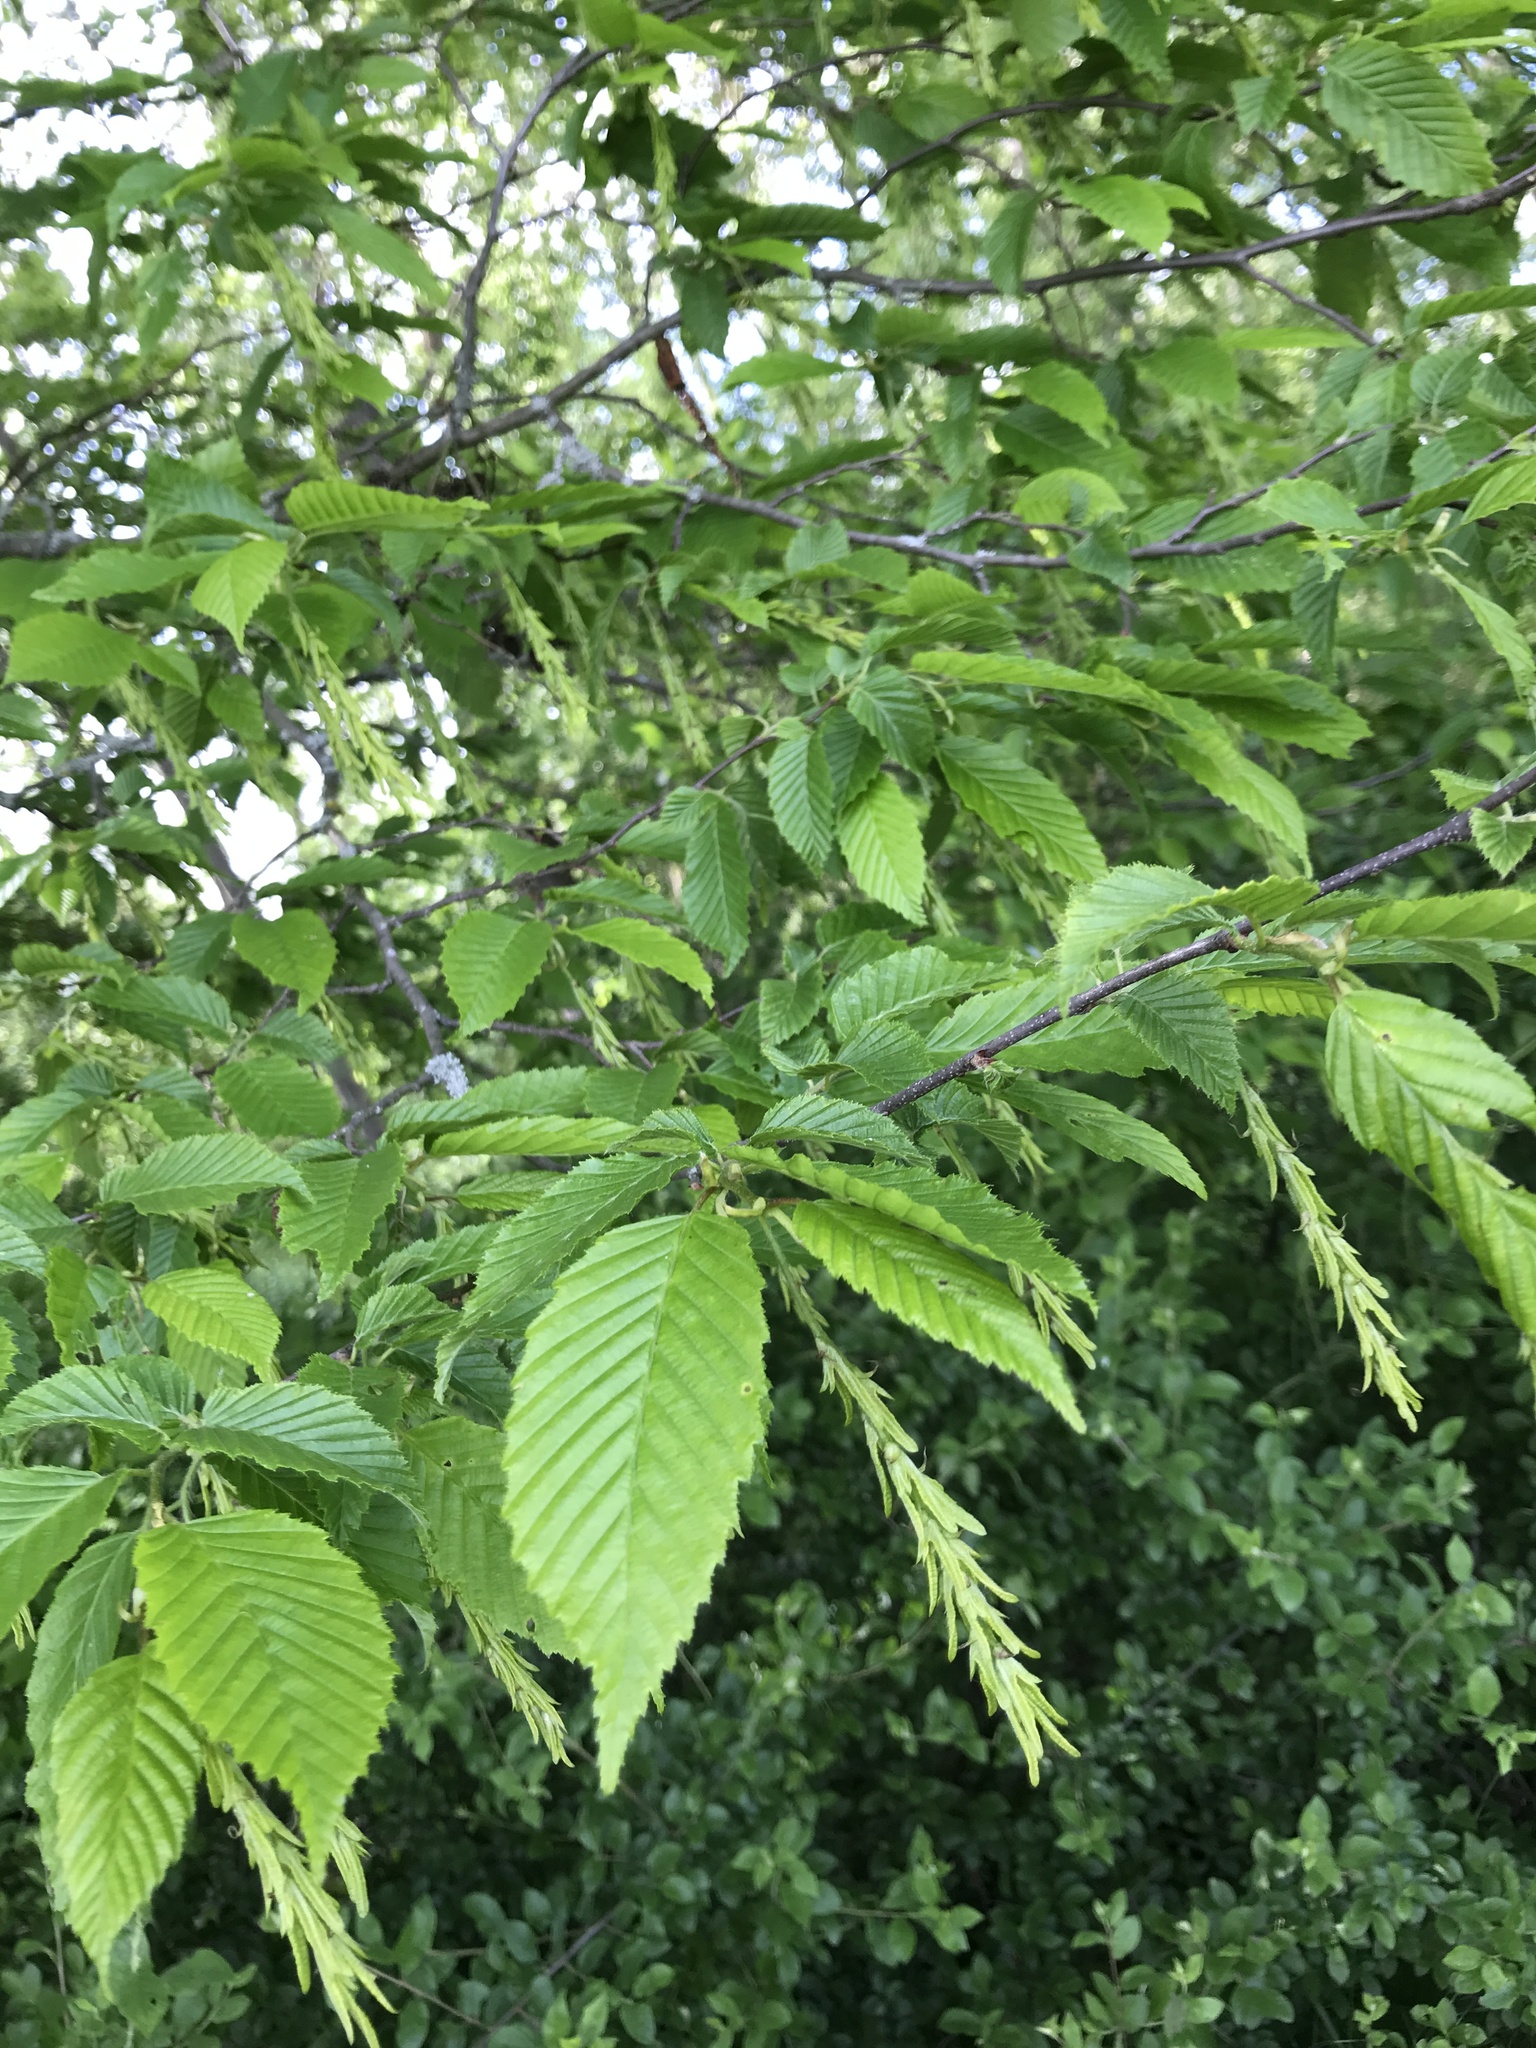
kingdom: Plantae
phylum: Tracheophyta
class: Magnoliopsida
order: Fagales
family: Betulaceae
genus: Carpinus
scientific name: Carpinus betulus
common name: Hornbeam
